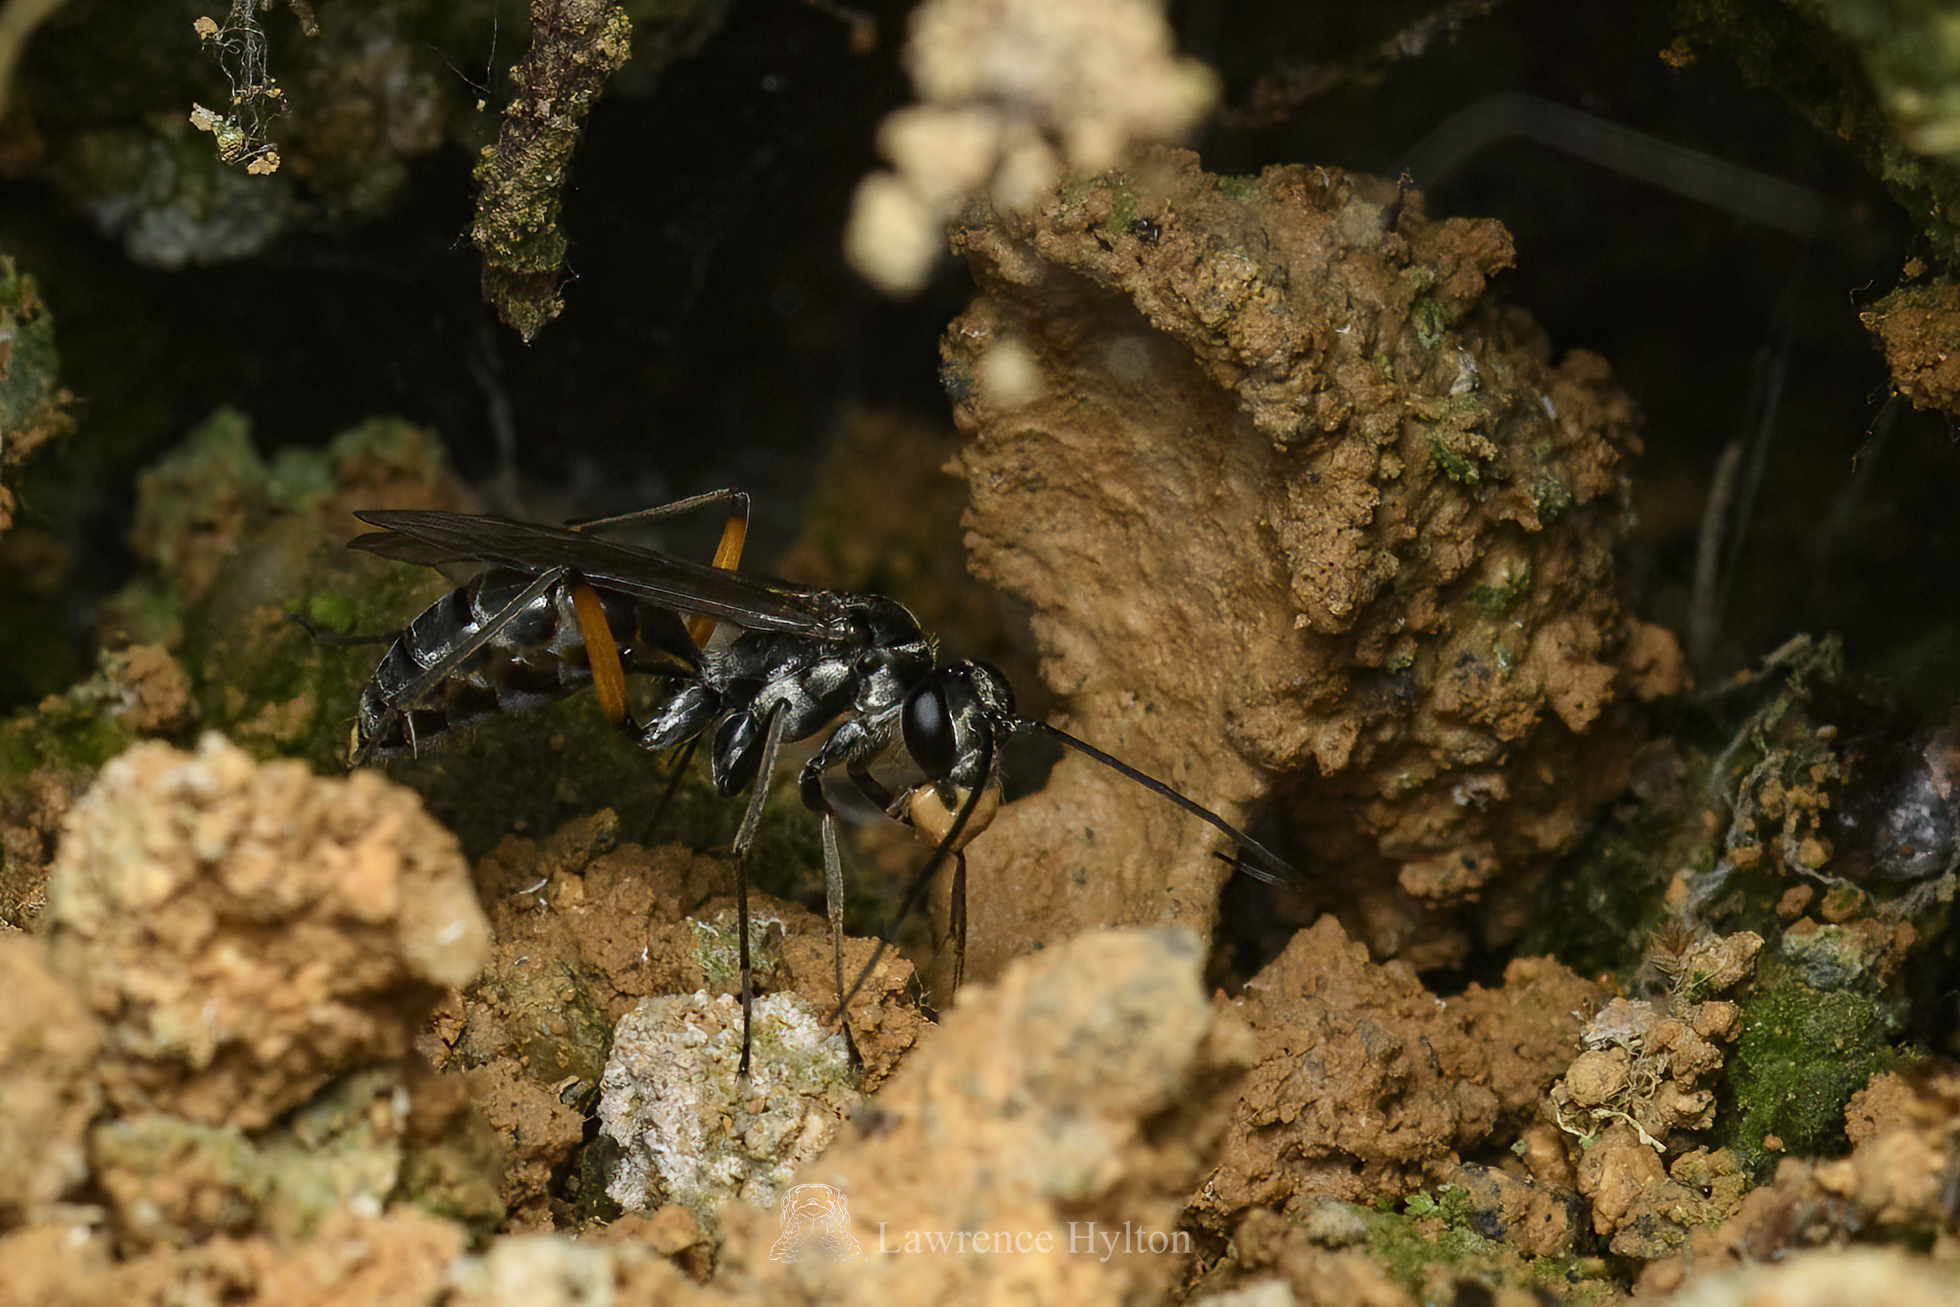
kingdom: Animalia
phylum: Arthropoda
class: Insecta
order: Hymenoptera
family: Pompilidae
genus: Paragenia
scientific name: Paragenia argentifrons
